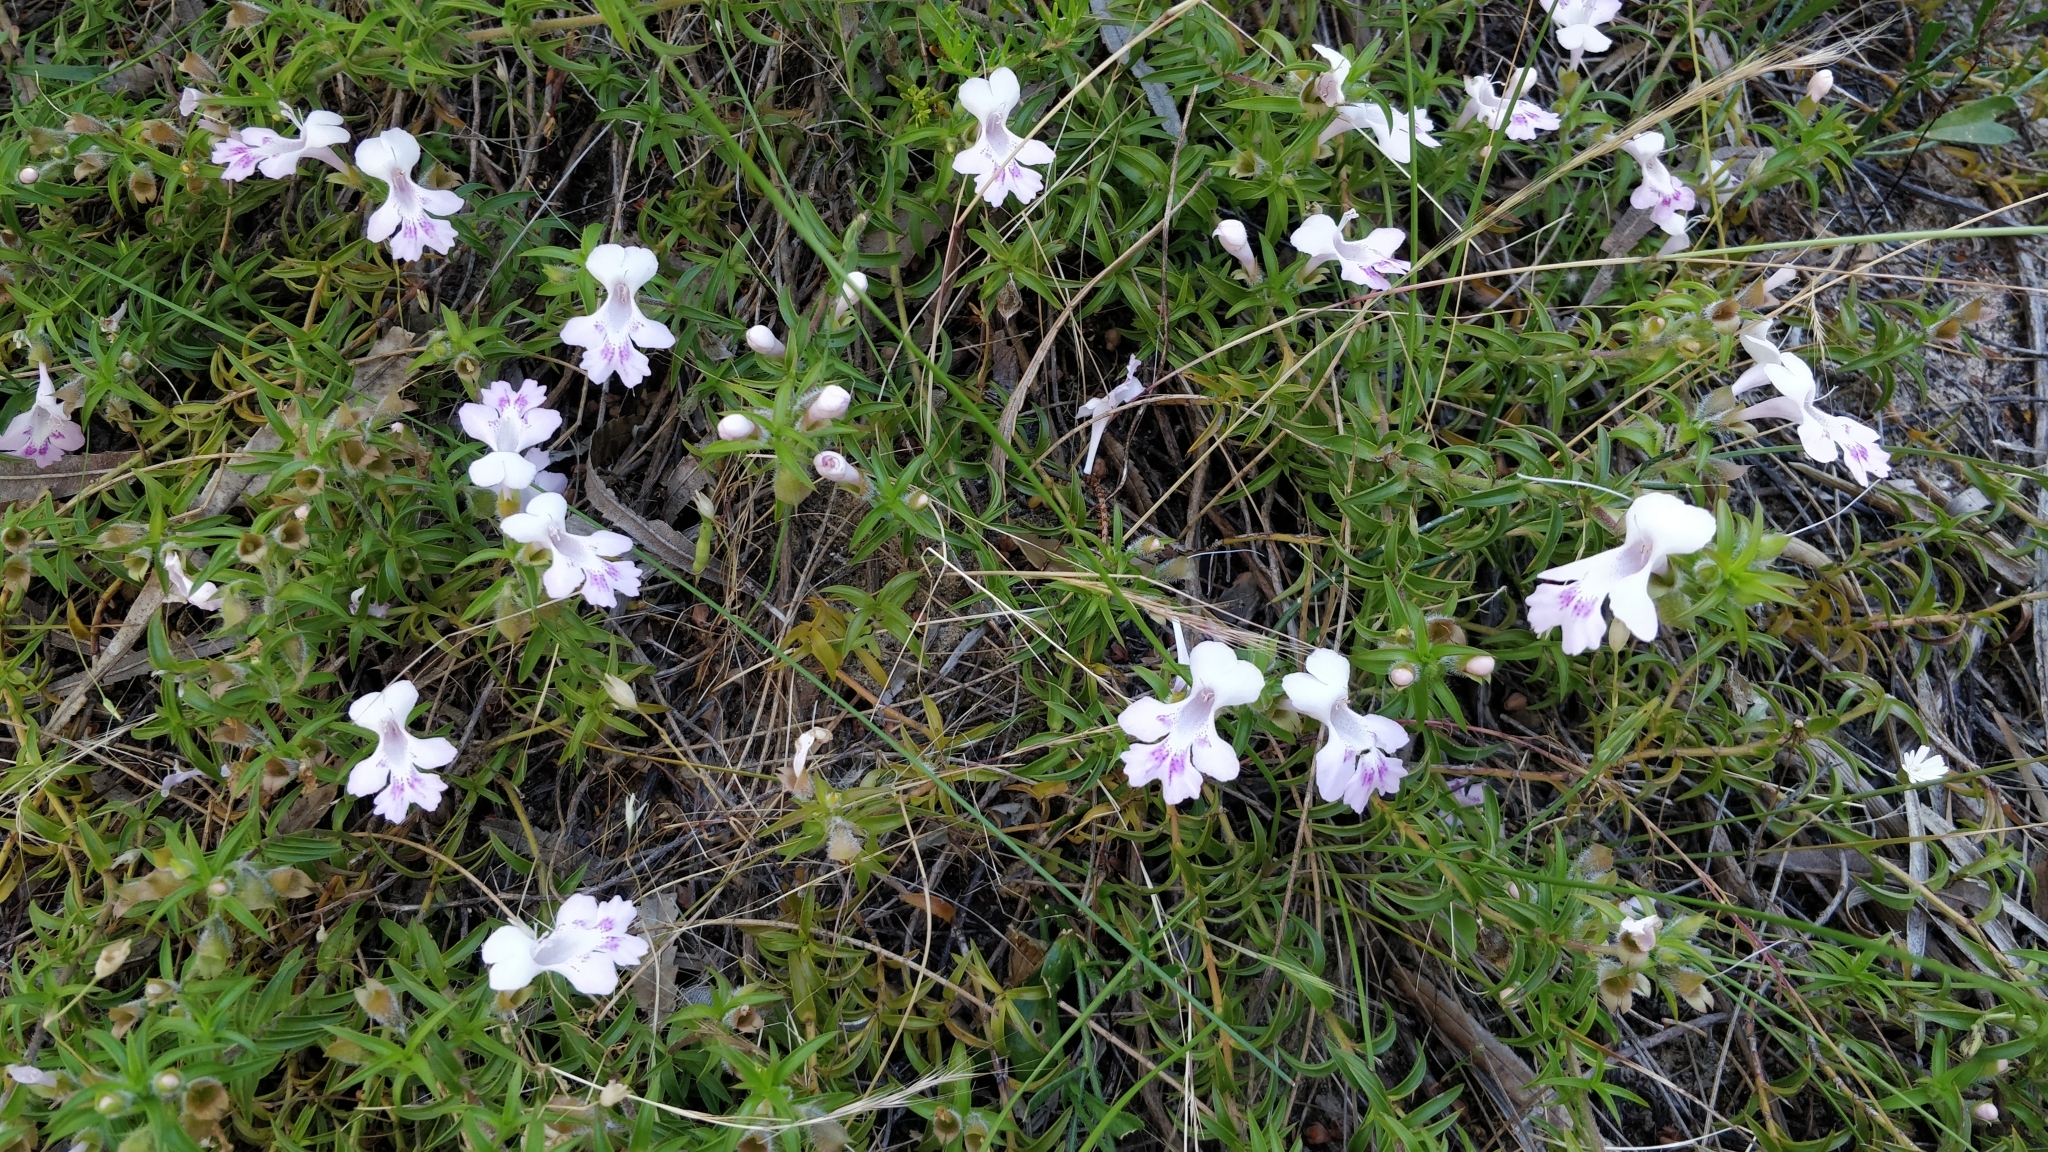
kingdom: Plantae
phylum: Tracheophyta
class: Magnoliopsida
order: Lamiales
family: Lamiaceae
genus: Hemiandra
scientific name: Hemiandra pungens
